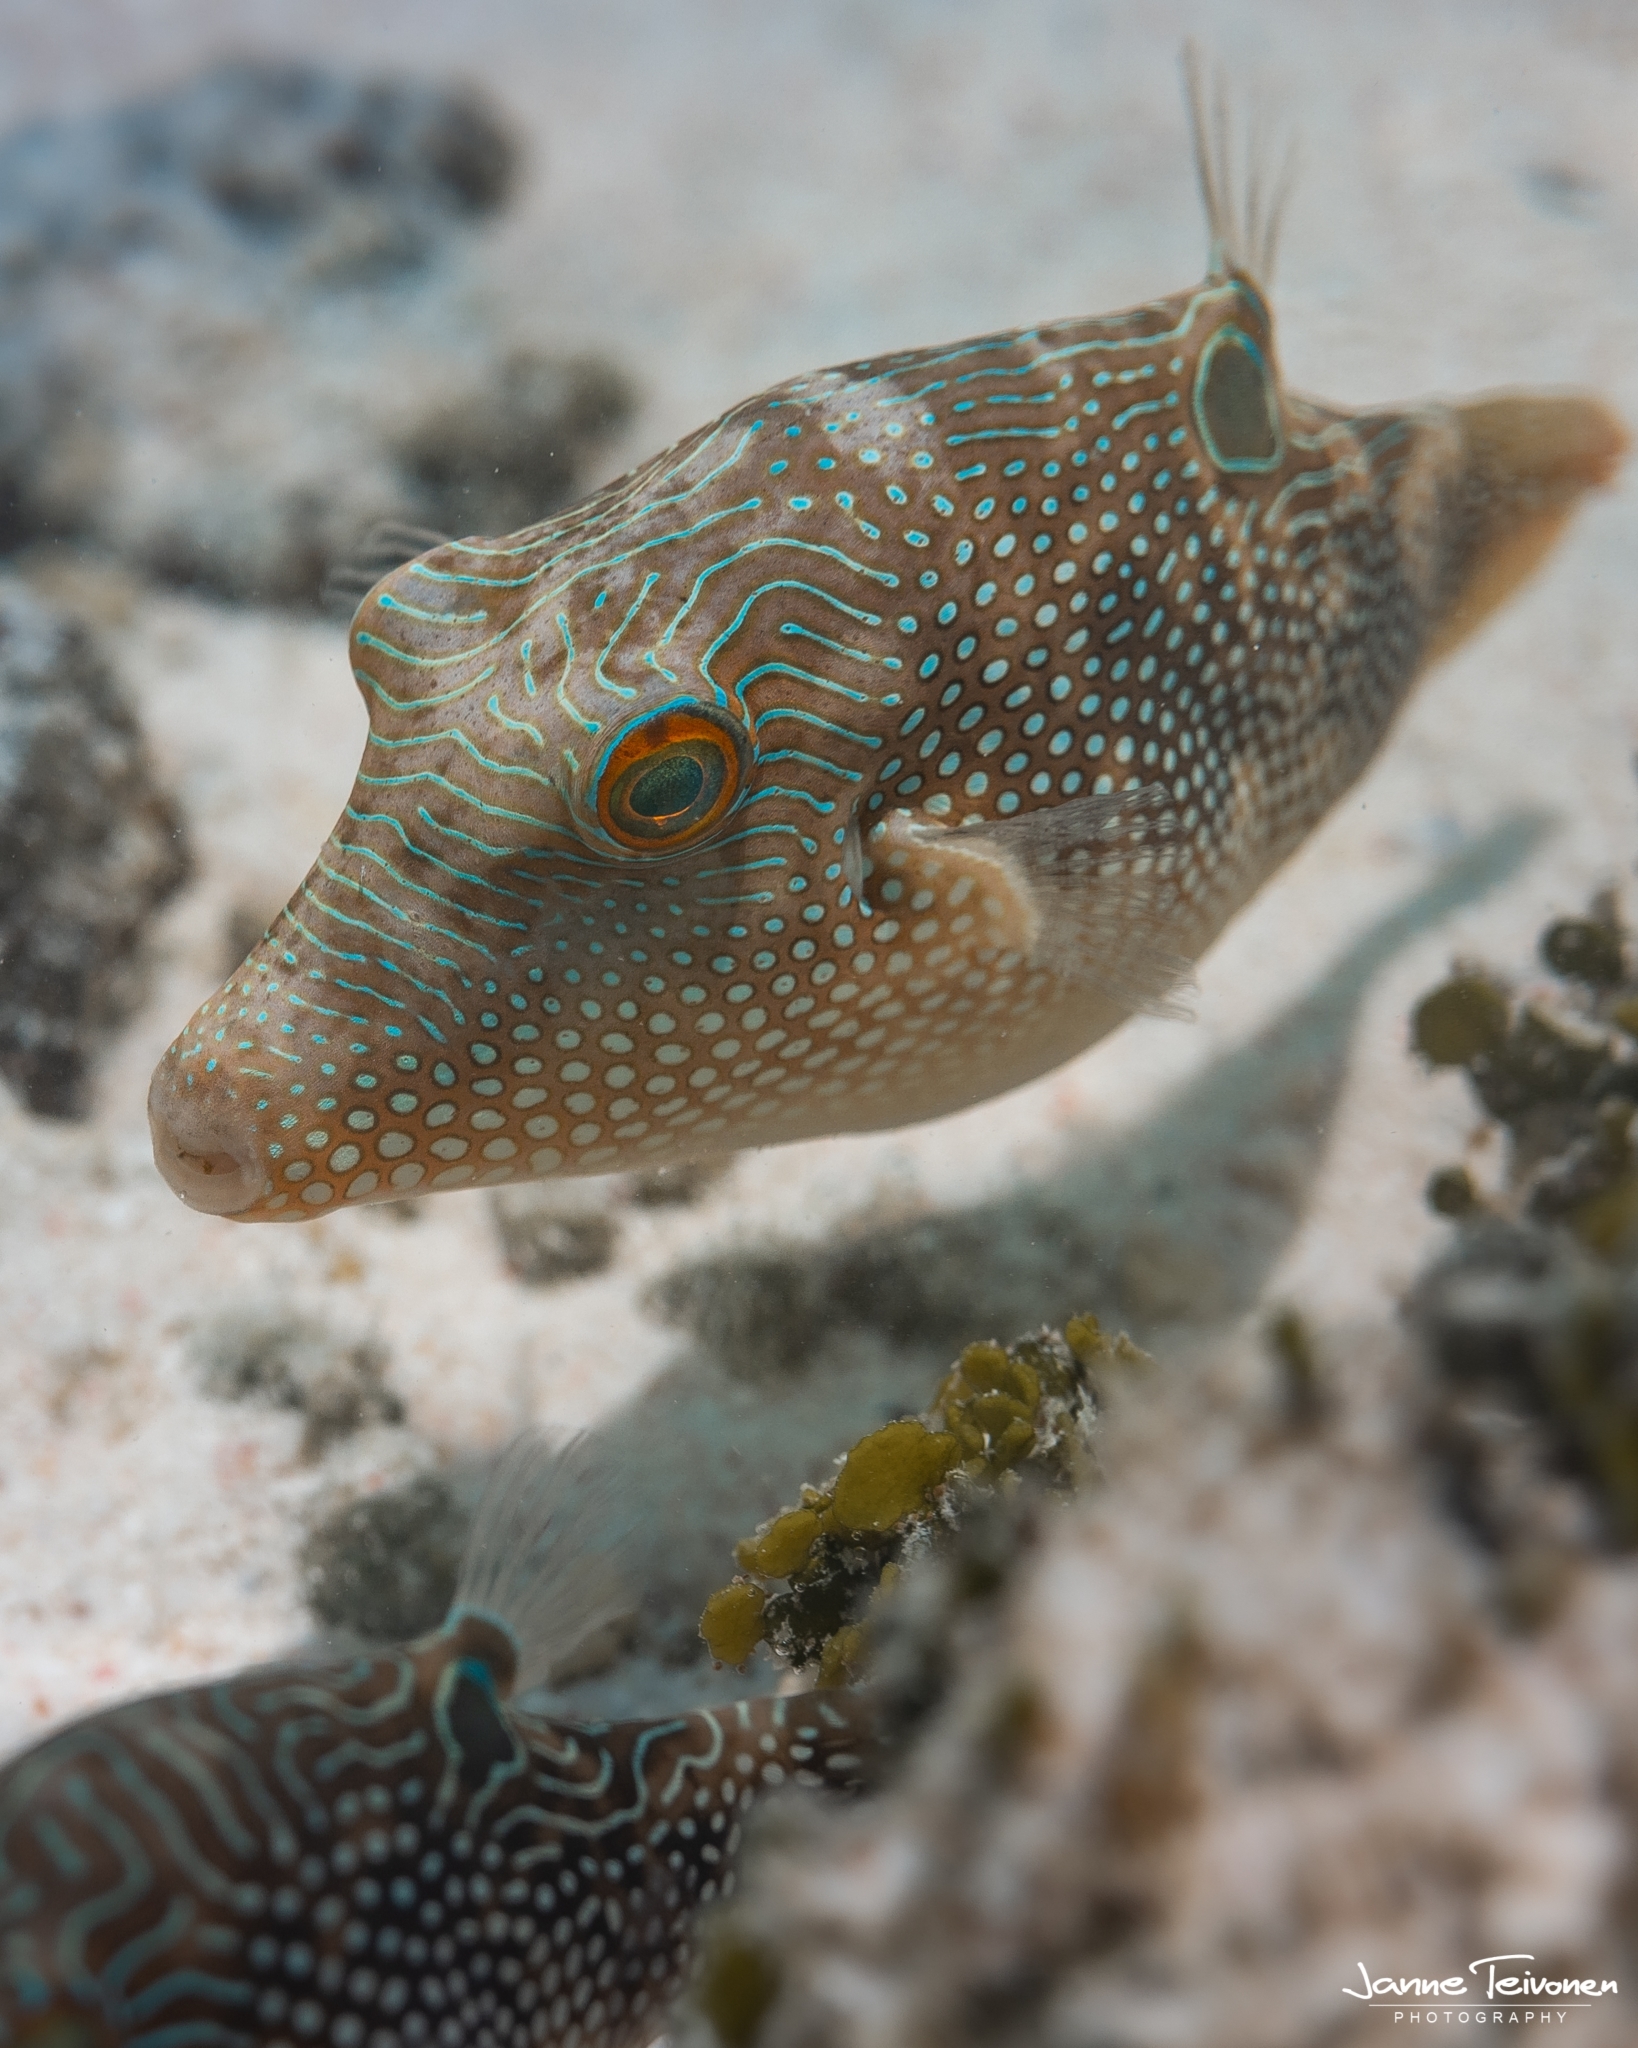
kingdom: Animalia
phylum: Chordata
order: Tetraodontiformes
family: Tetraodontidae
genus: Canthigaster
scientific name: Canthigaster petersii
